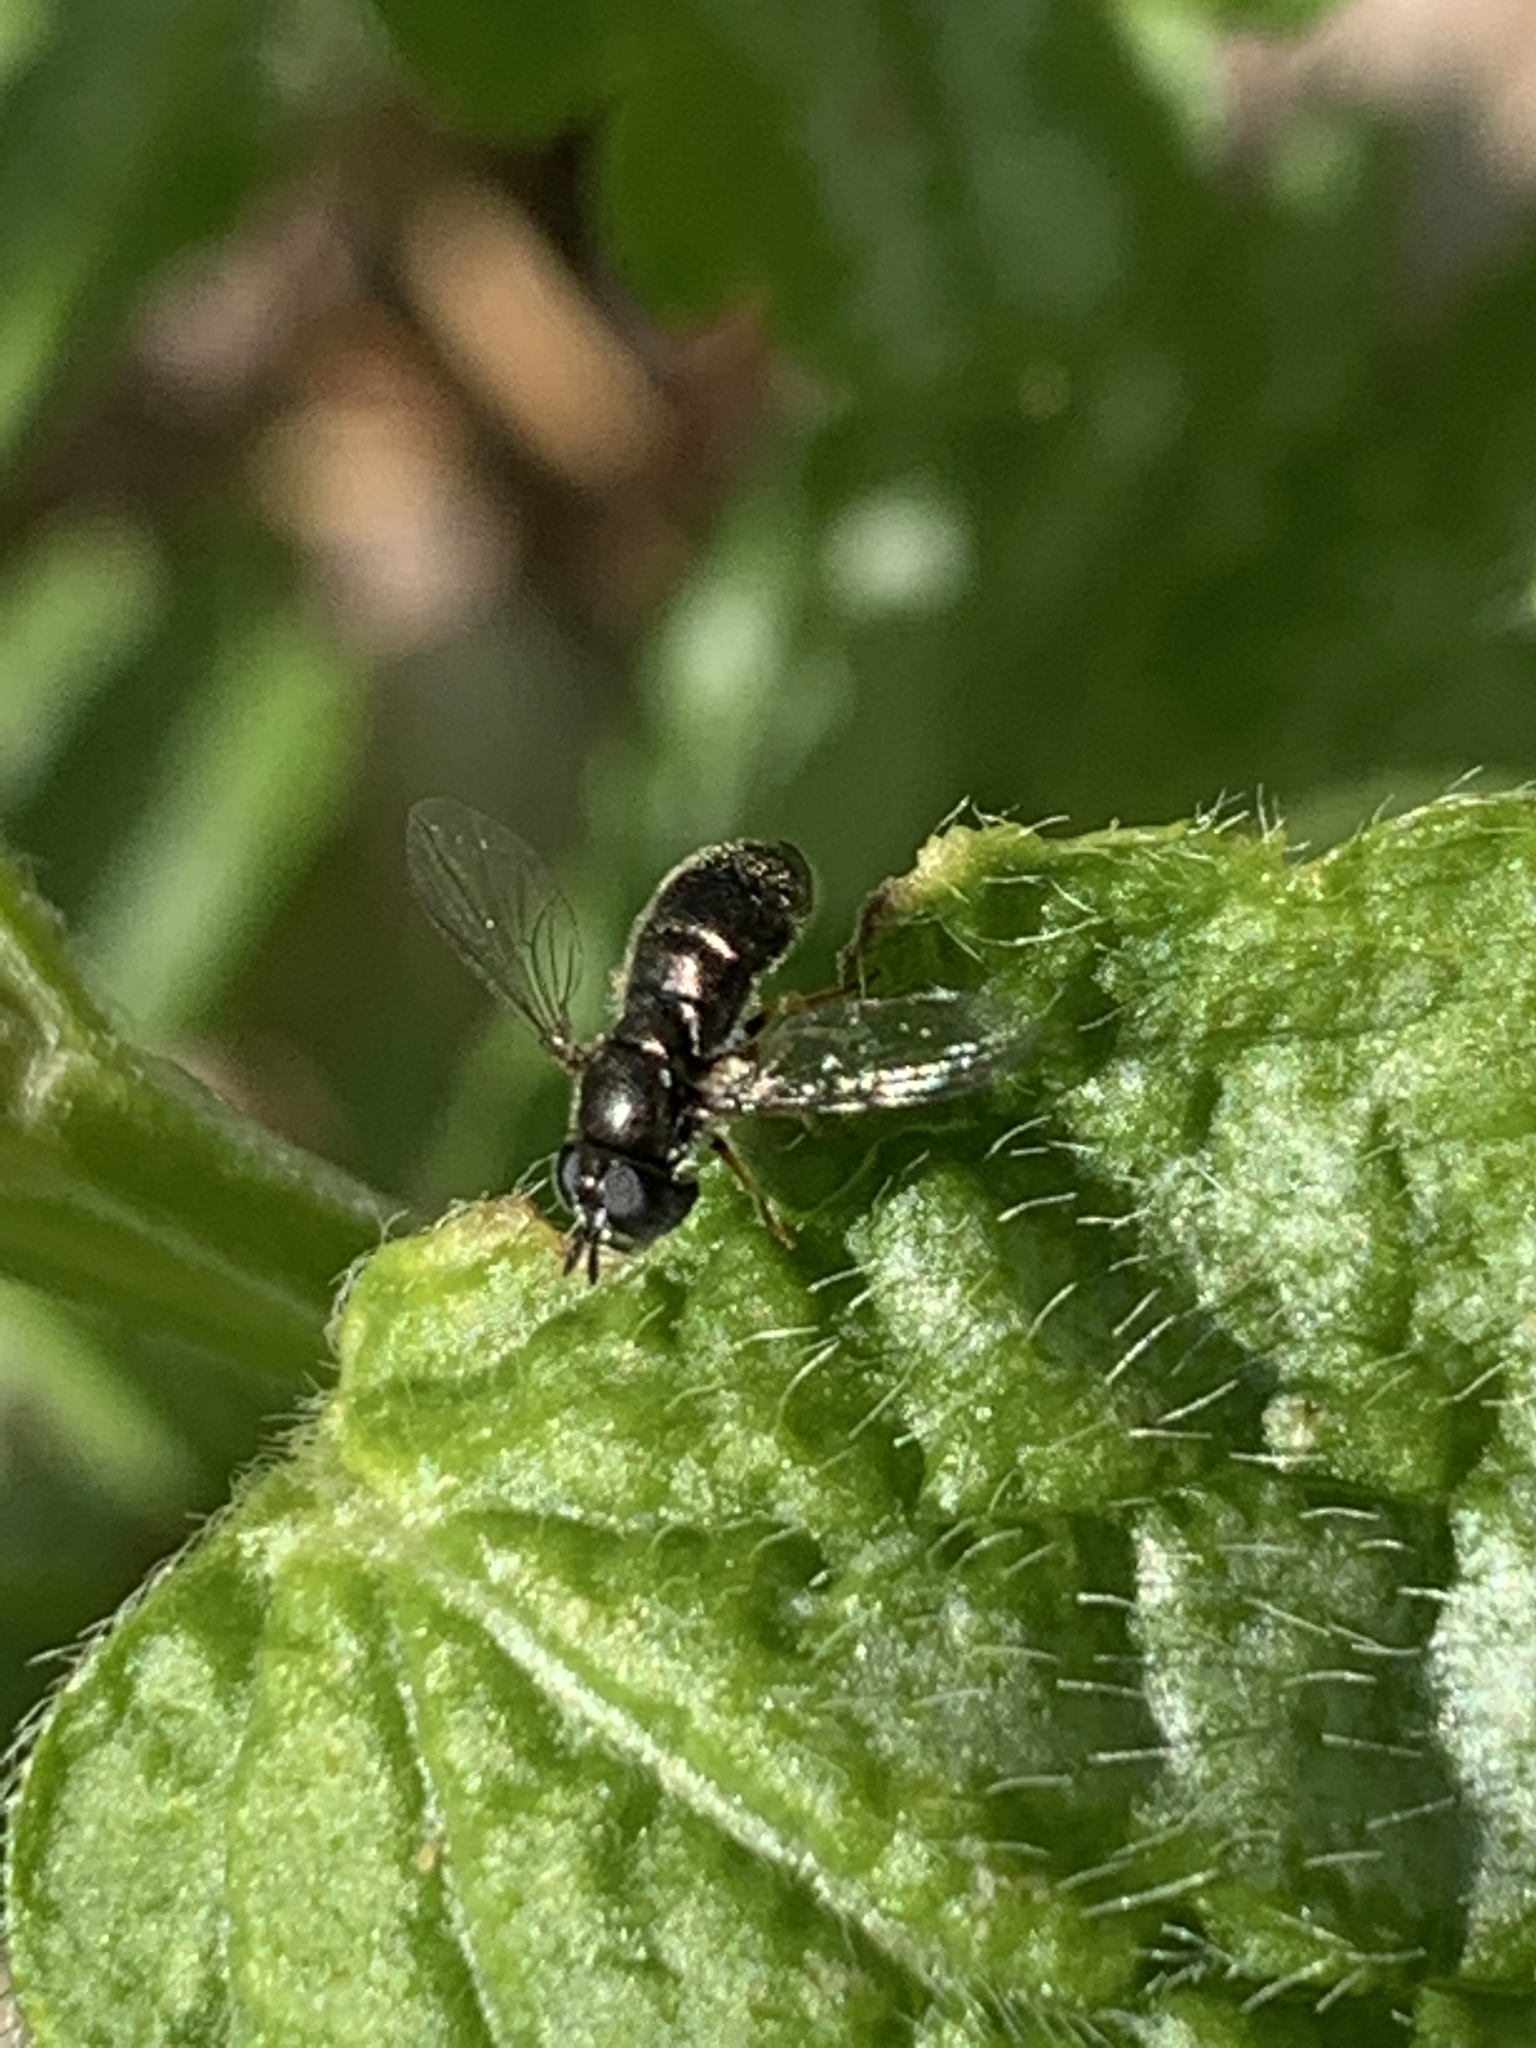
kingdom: Animalia
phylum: Arthropoda
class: Insecta
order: Diptera
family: Syrphidae
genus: Paragus
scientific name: Paragus haemorrhous
